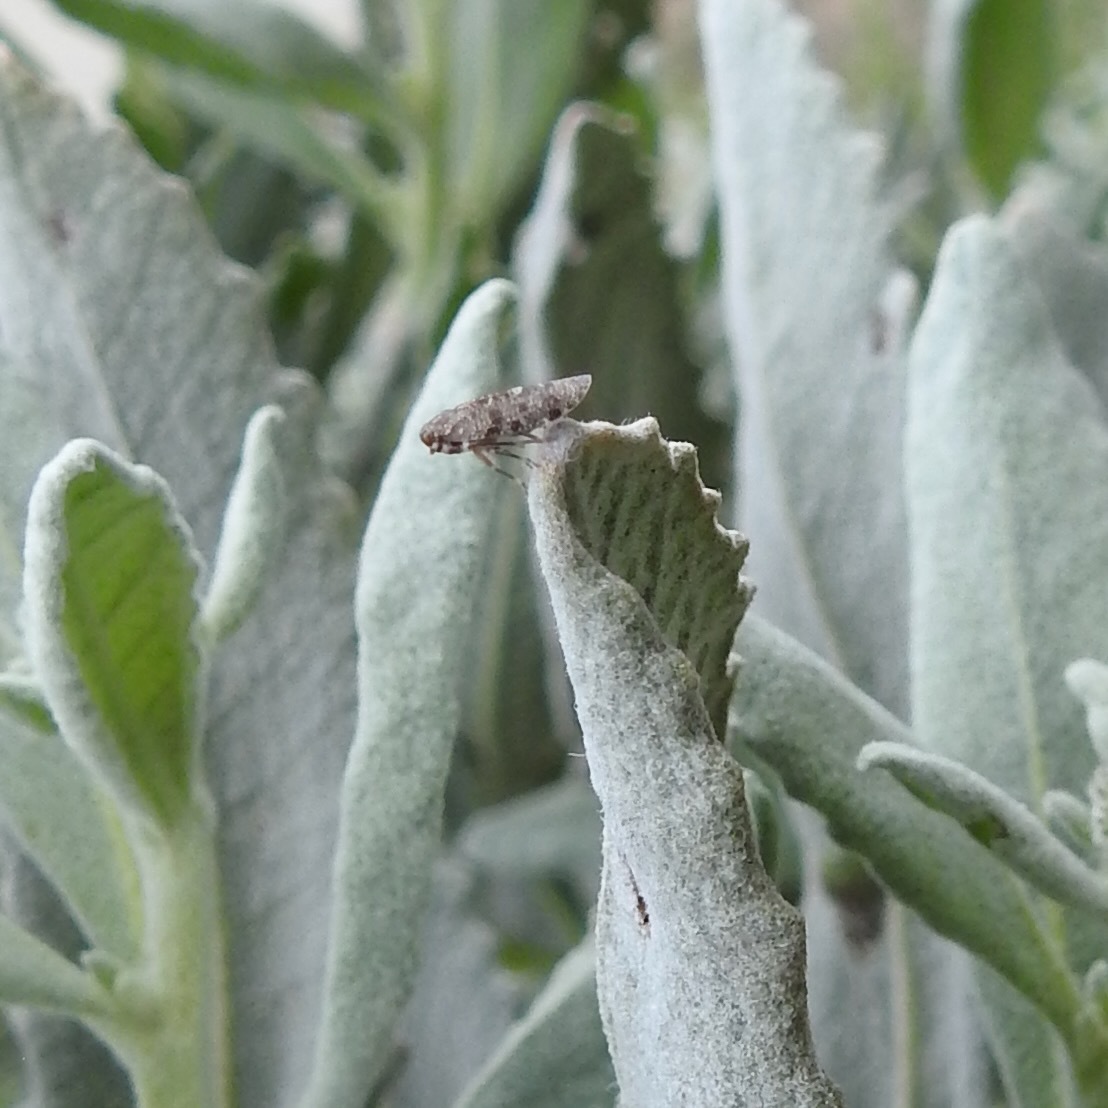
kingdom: Plantae
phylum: Tracheophyta
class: Magnoliopsida
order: Boraginales
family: Namaceae
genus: Eriodictyon
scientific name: Eriodictyon tomentosum
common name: Woolly yerba-santa
